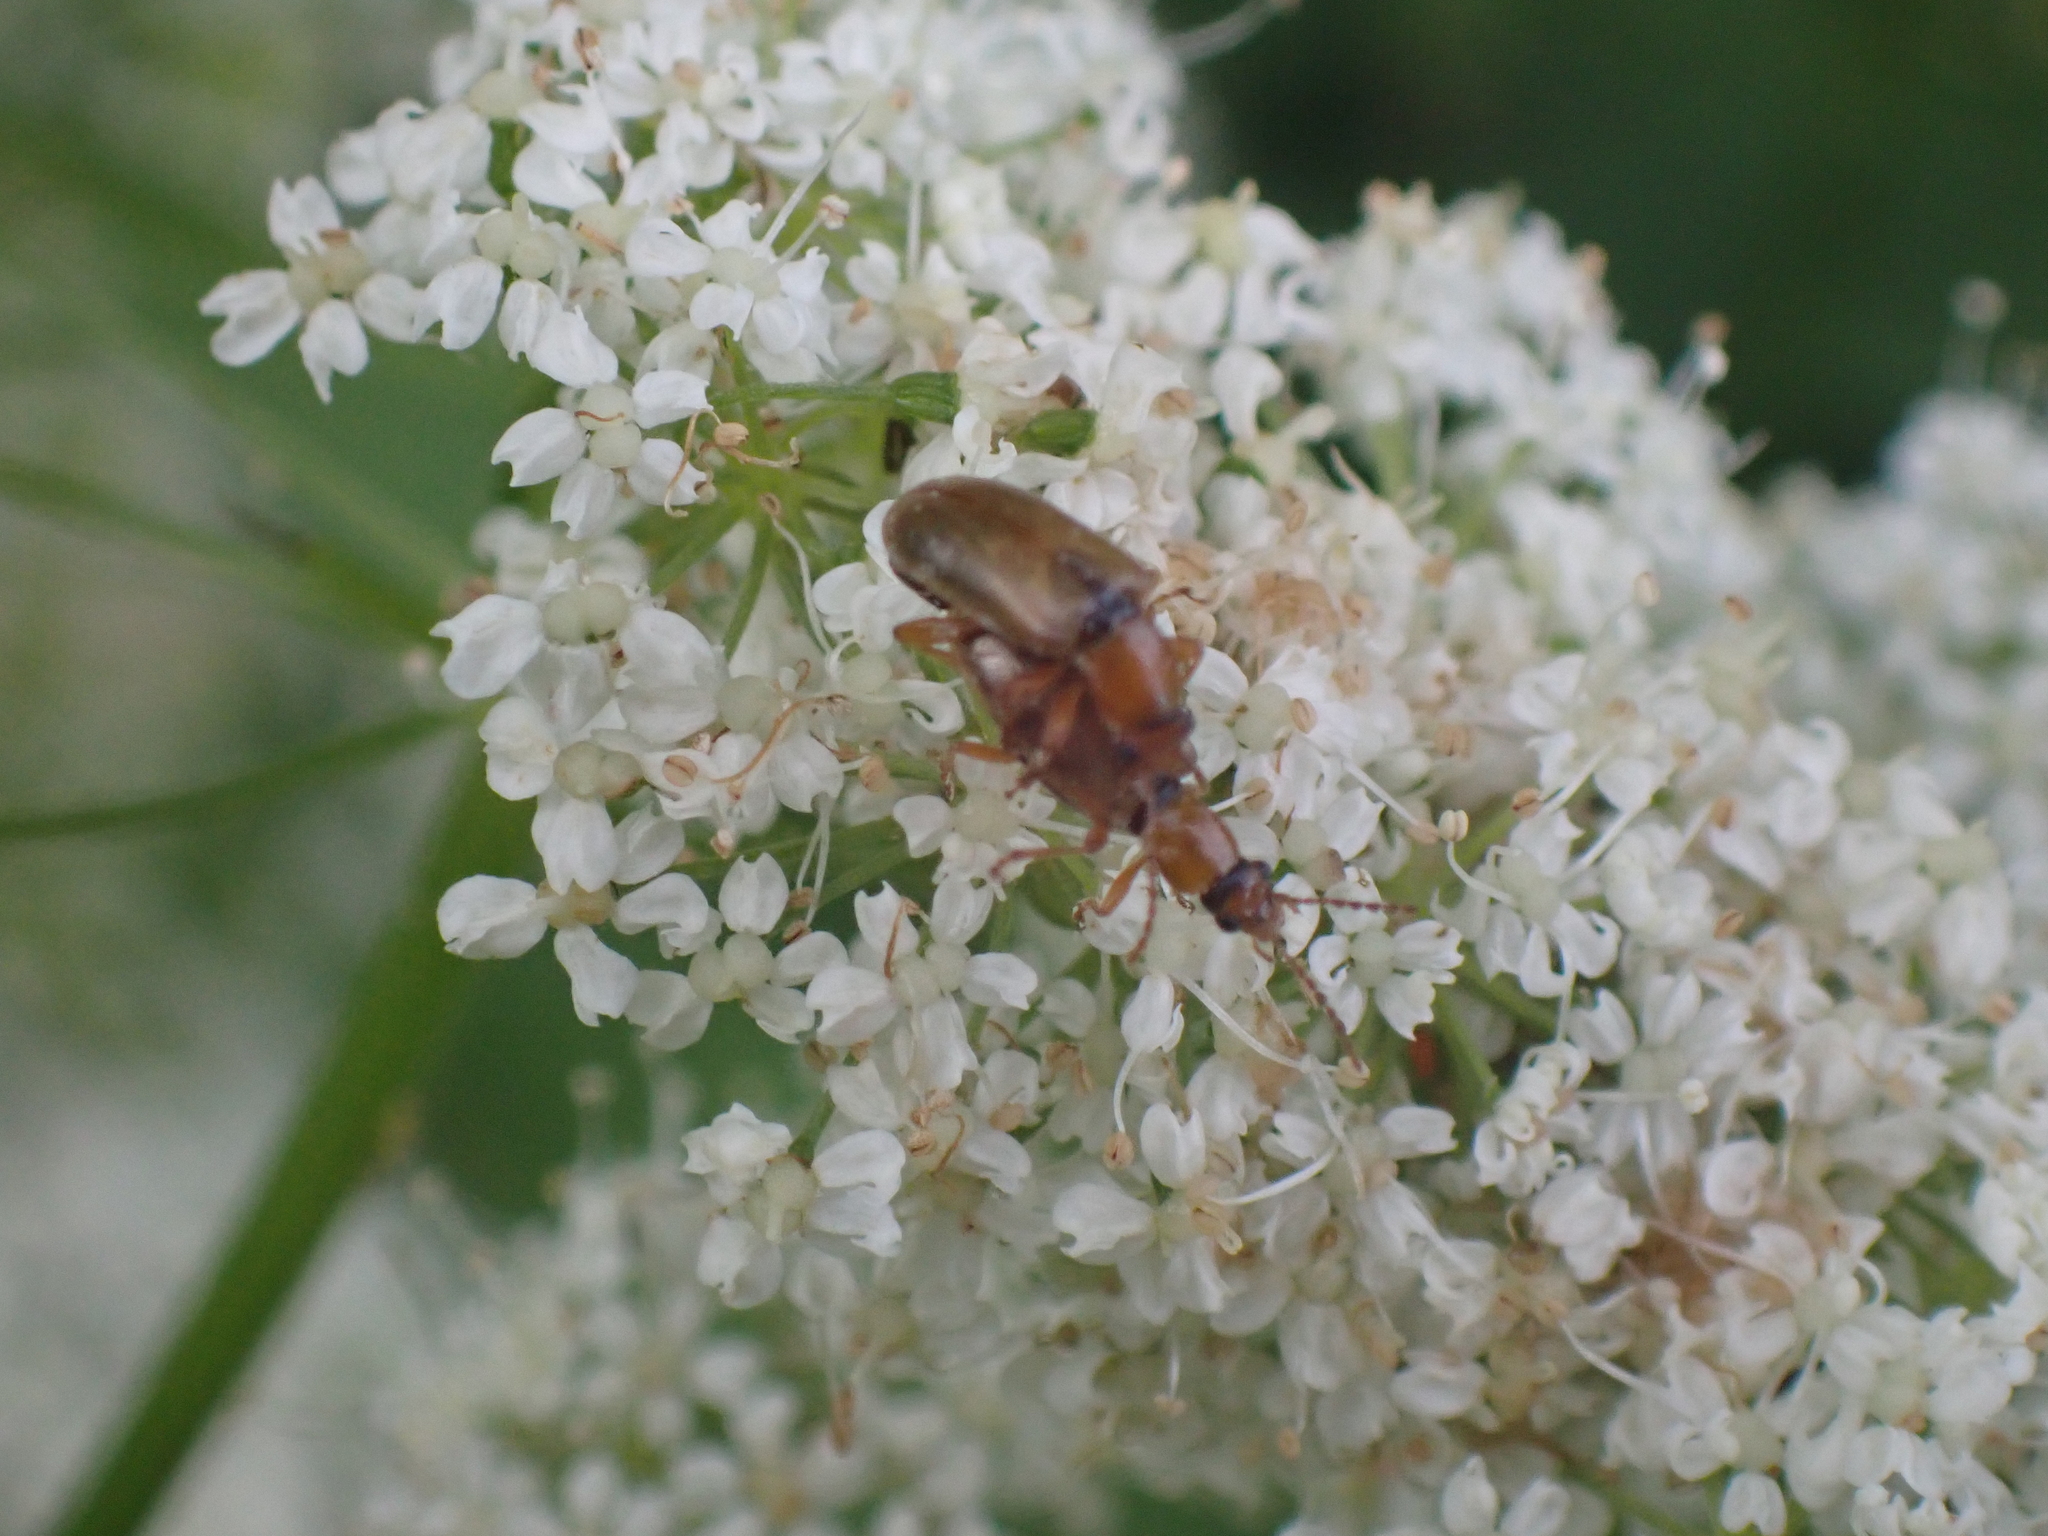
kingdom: Animalia
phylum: Arthropoda
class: Insecta
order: Coleoptera
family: Orsodacnidae
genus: Orsodacne
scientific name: Orsodacne cerasi
